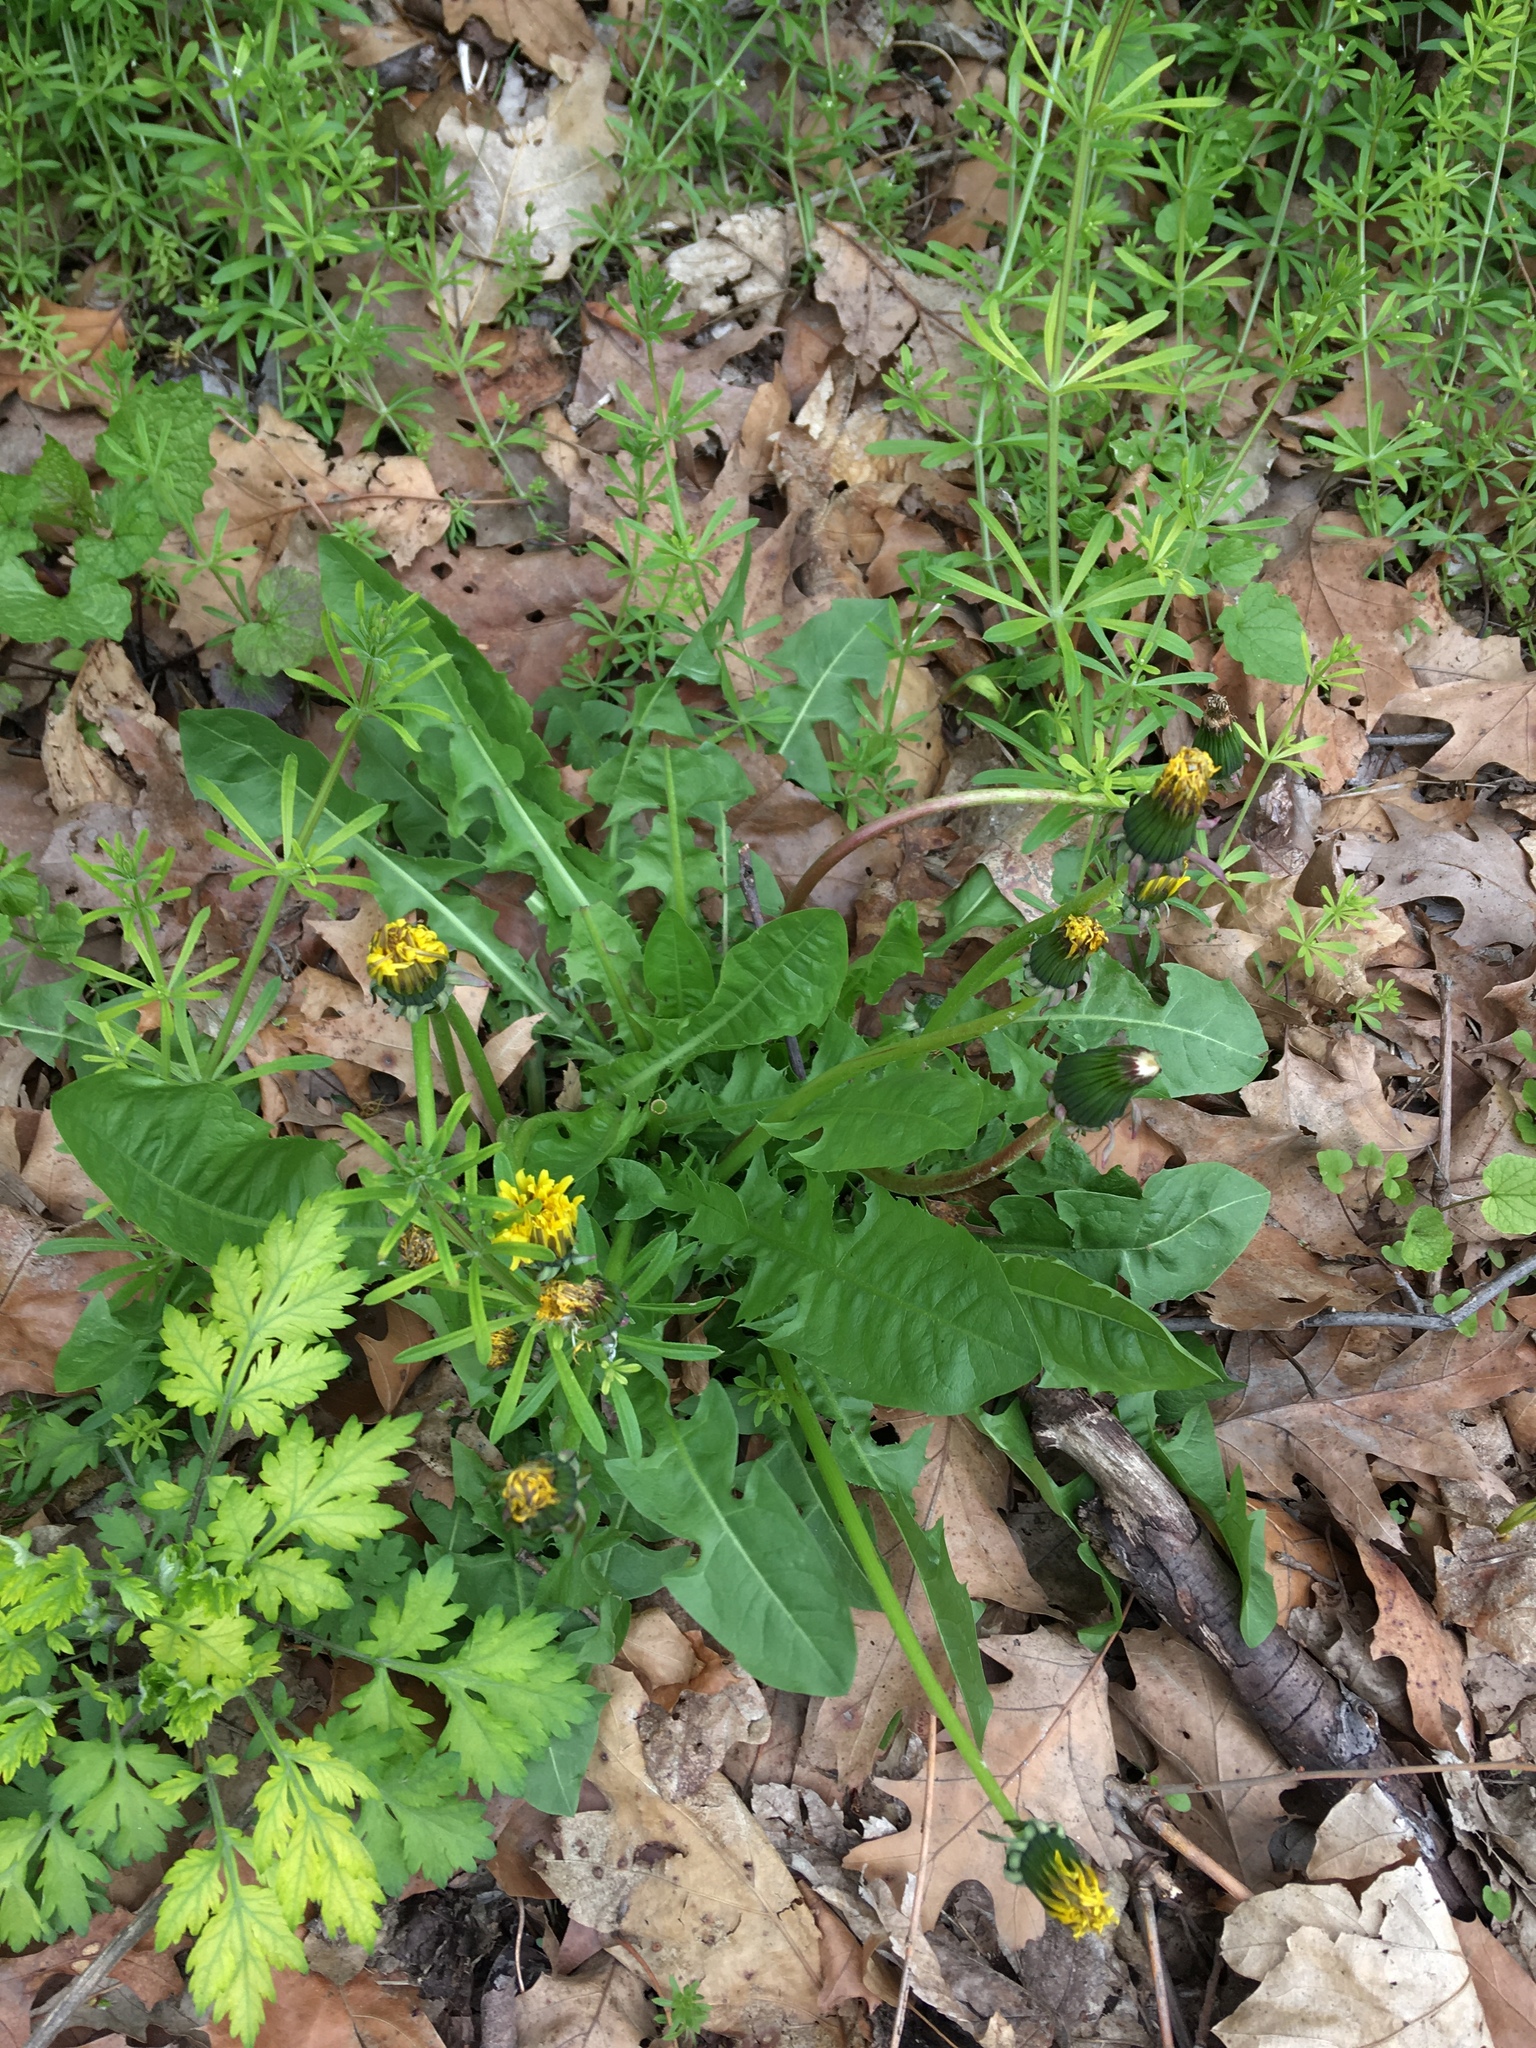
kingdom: Plantae
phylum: Tracheophyta
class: Magnoliopsida
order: Asterales
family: Asteraceae
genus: Taraxacum
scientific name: Taraxacum officinale
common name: Common dandelion
